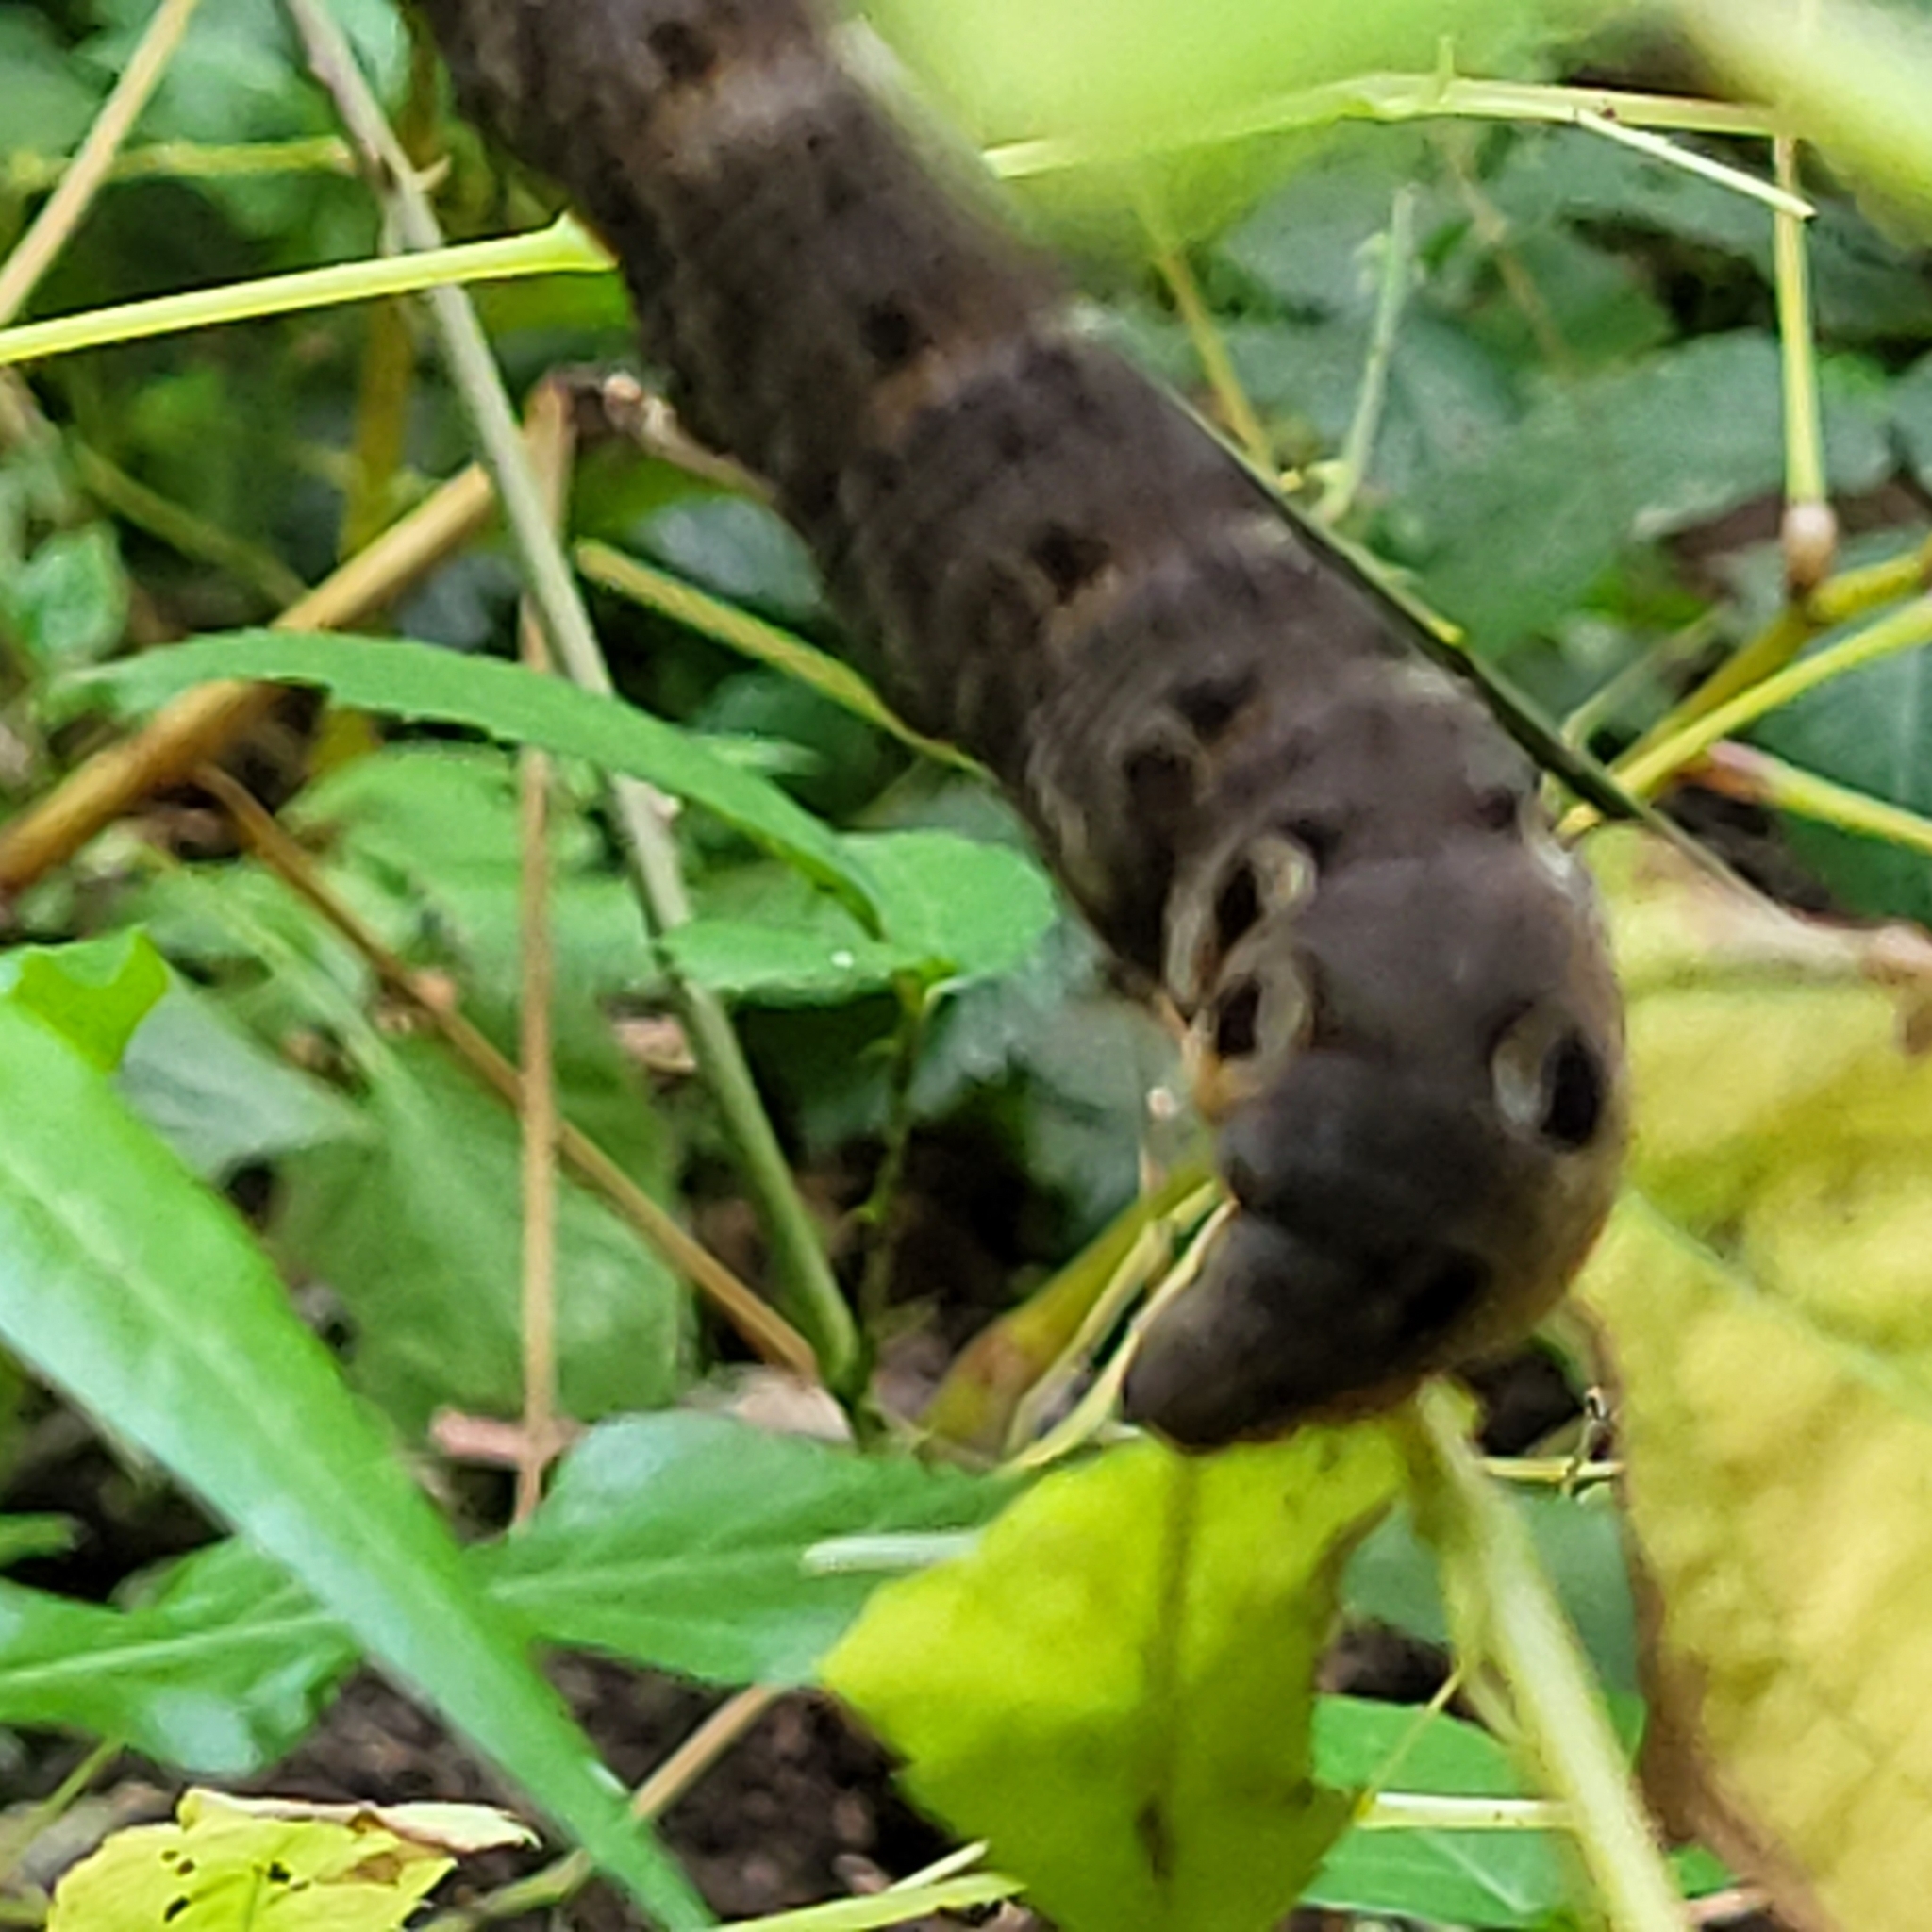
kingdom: Animalia
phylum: Arthropoda
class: Insecta
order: Lepidoptera
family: Sphingidae
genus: Deilephila
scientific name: Deilephila elpenor
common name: Elephant hawk-moth
